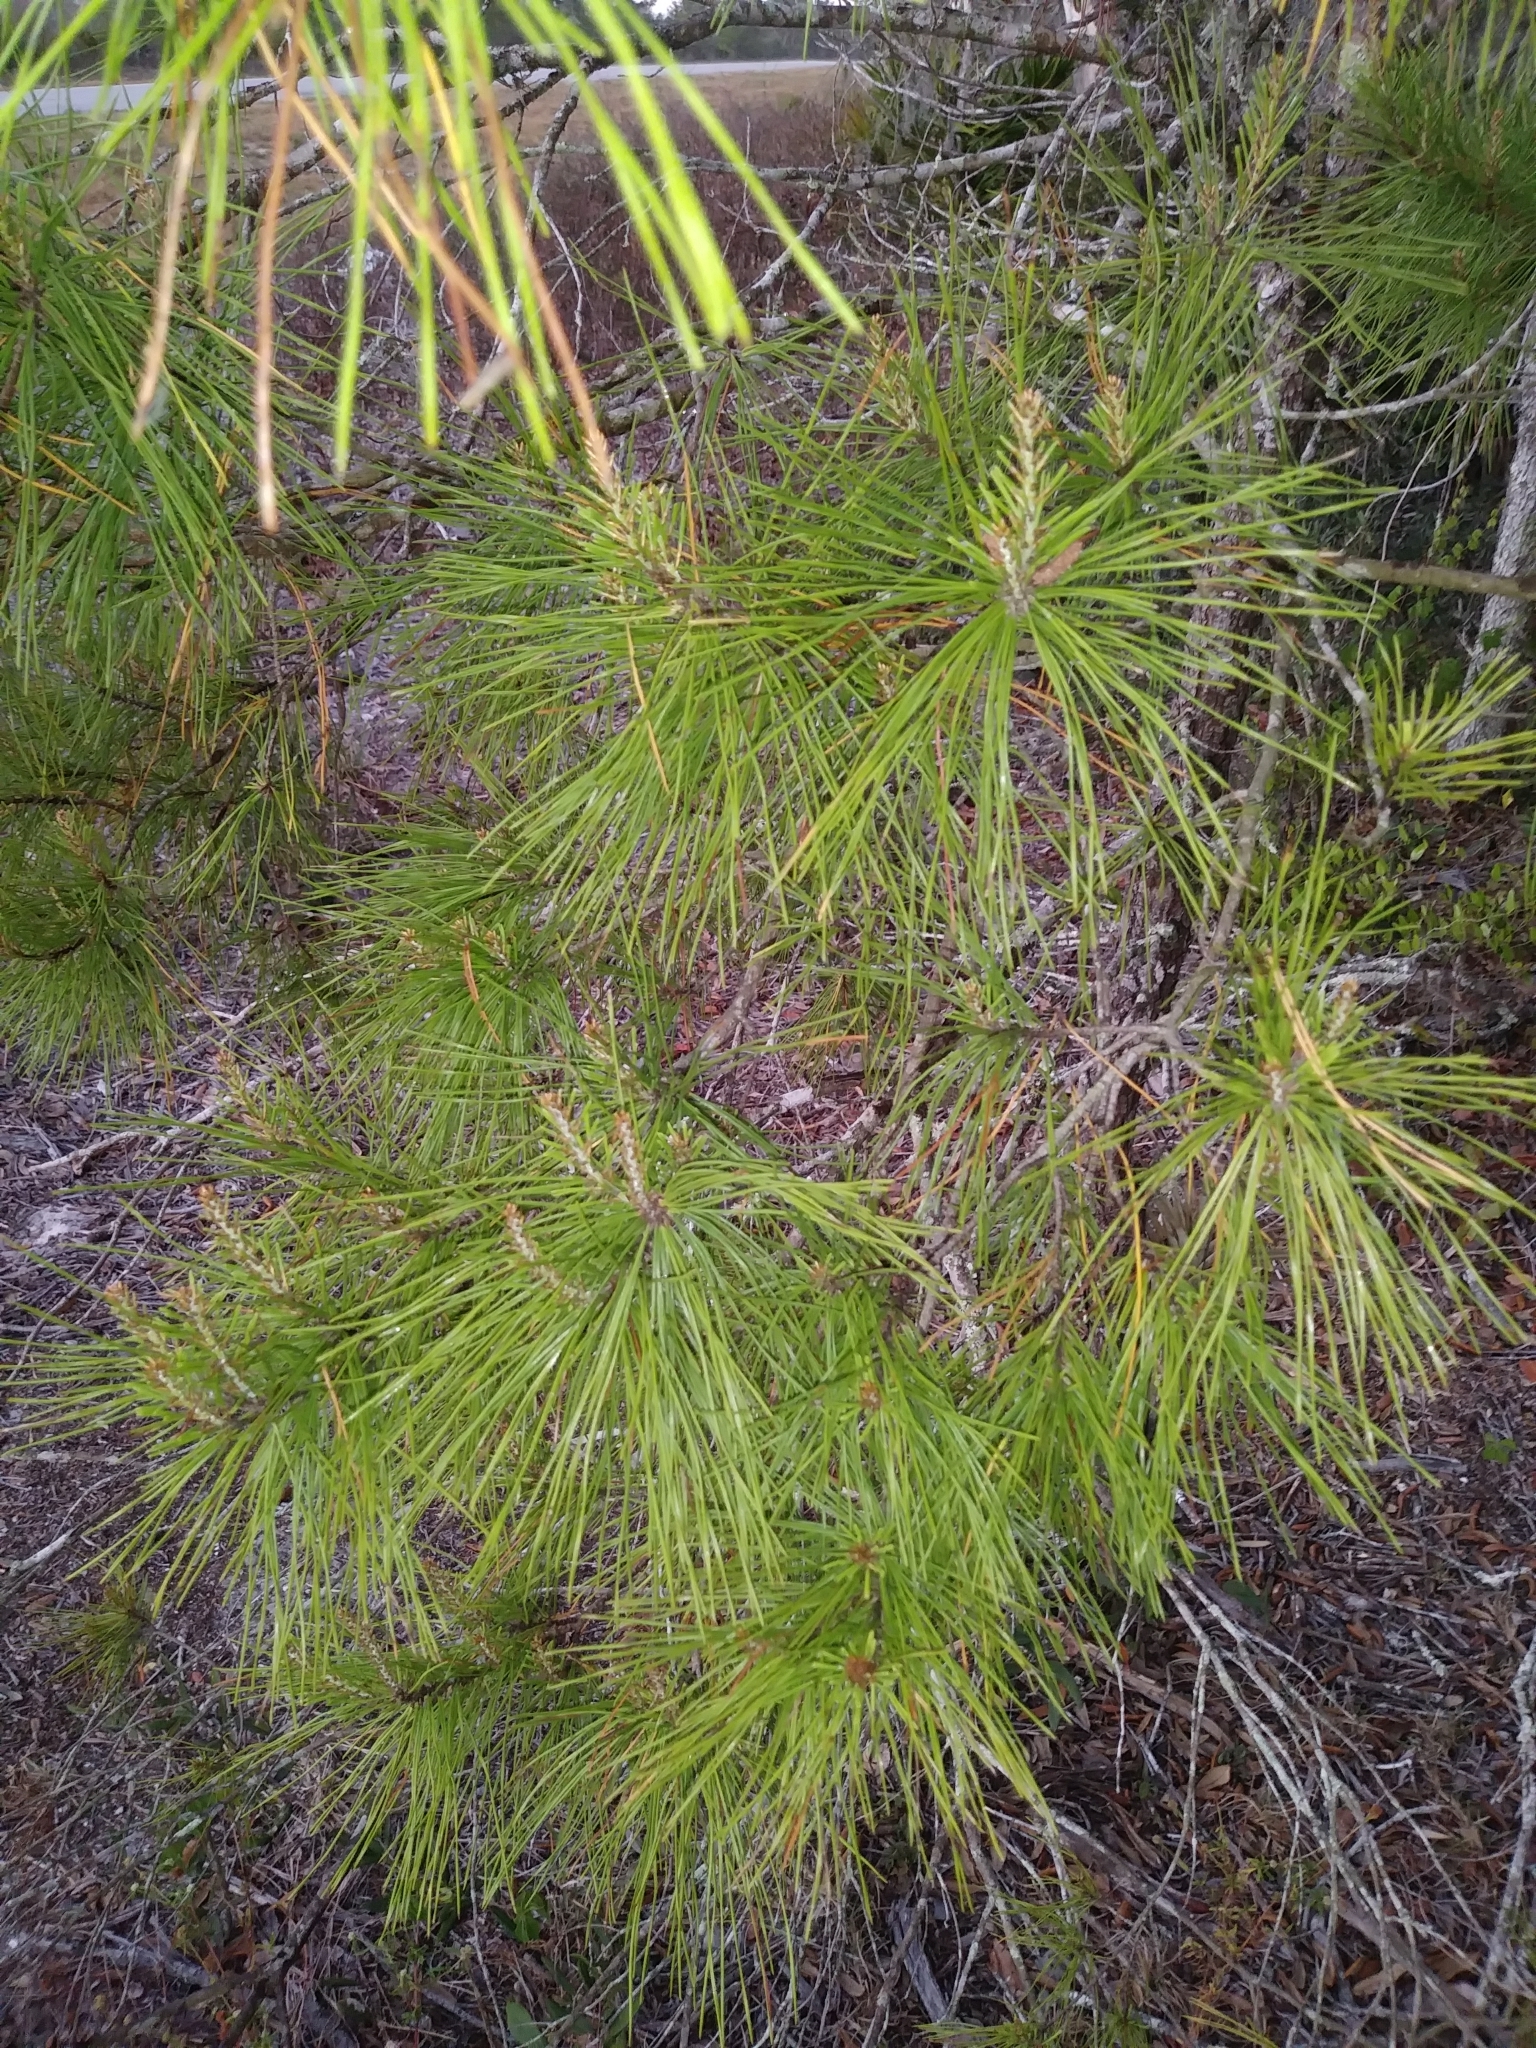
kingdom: Plantae
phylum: Tracheophyta
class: Pinopsida
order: Pinales
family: Pinaceae
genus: Pinus
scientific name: Pinus clausa
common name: Sand pine
